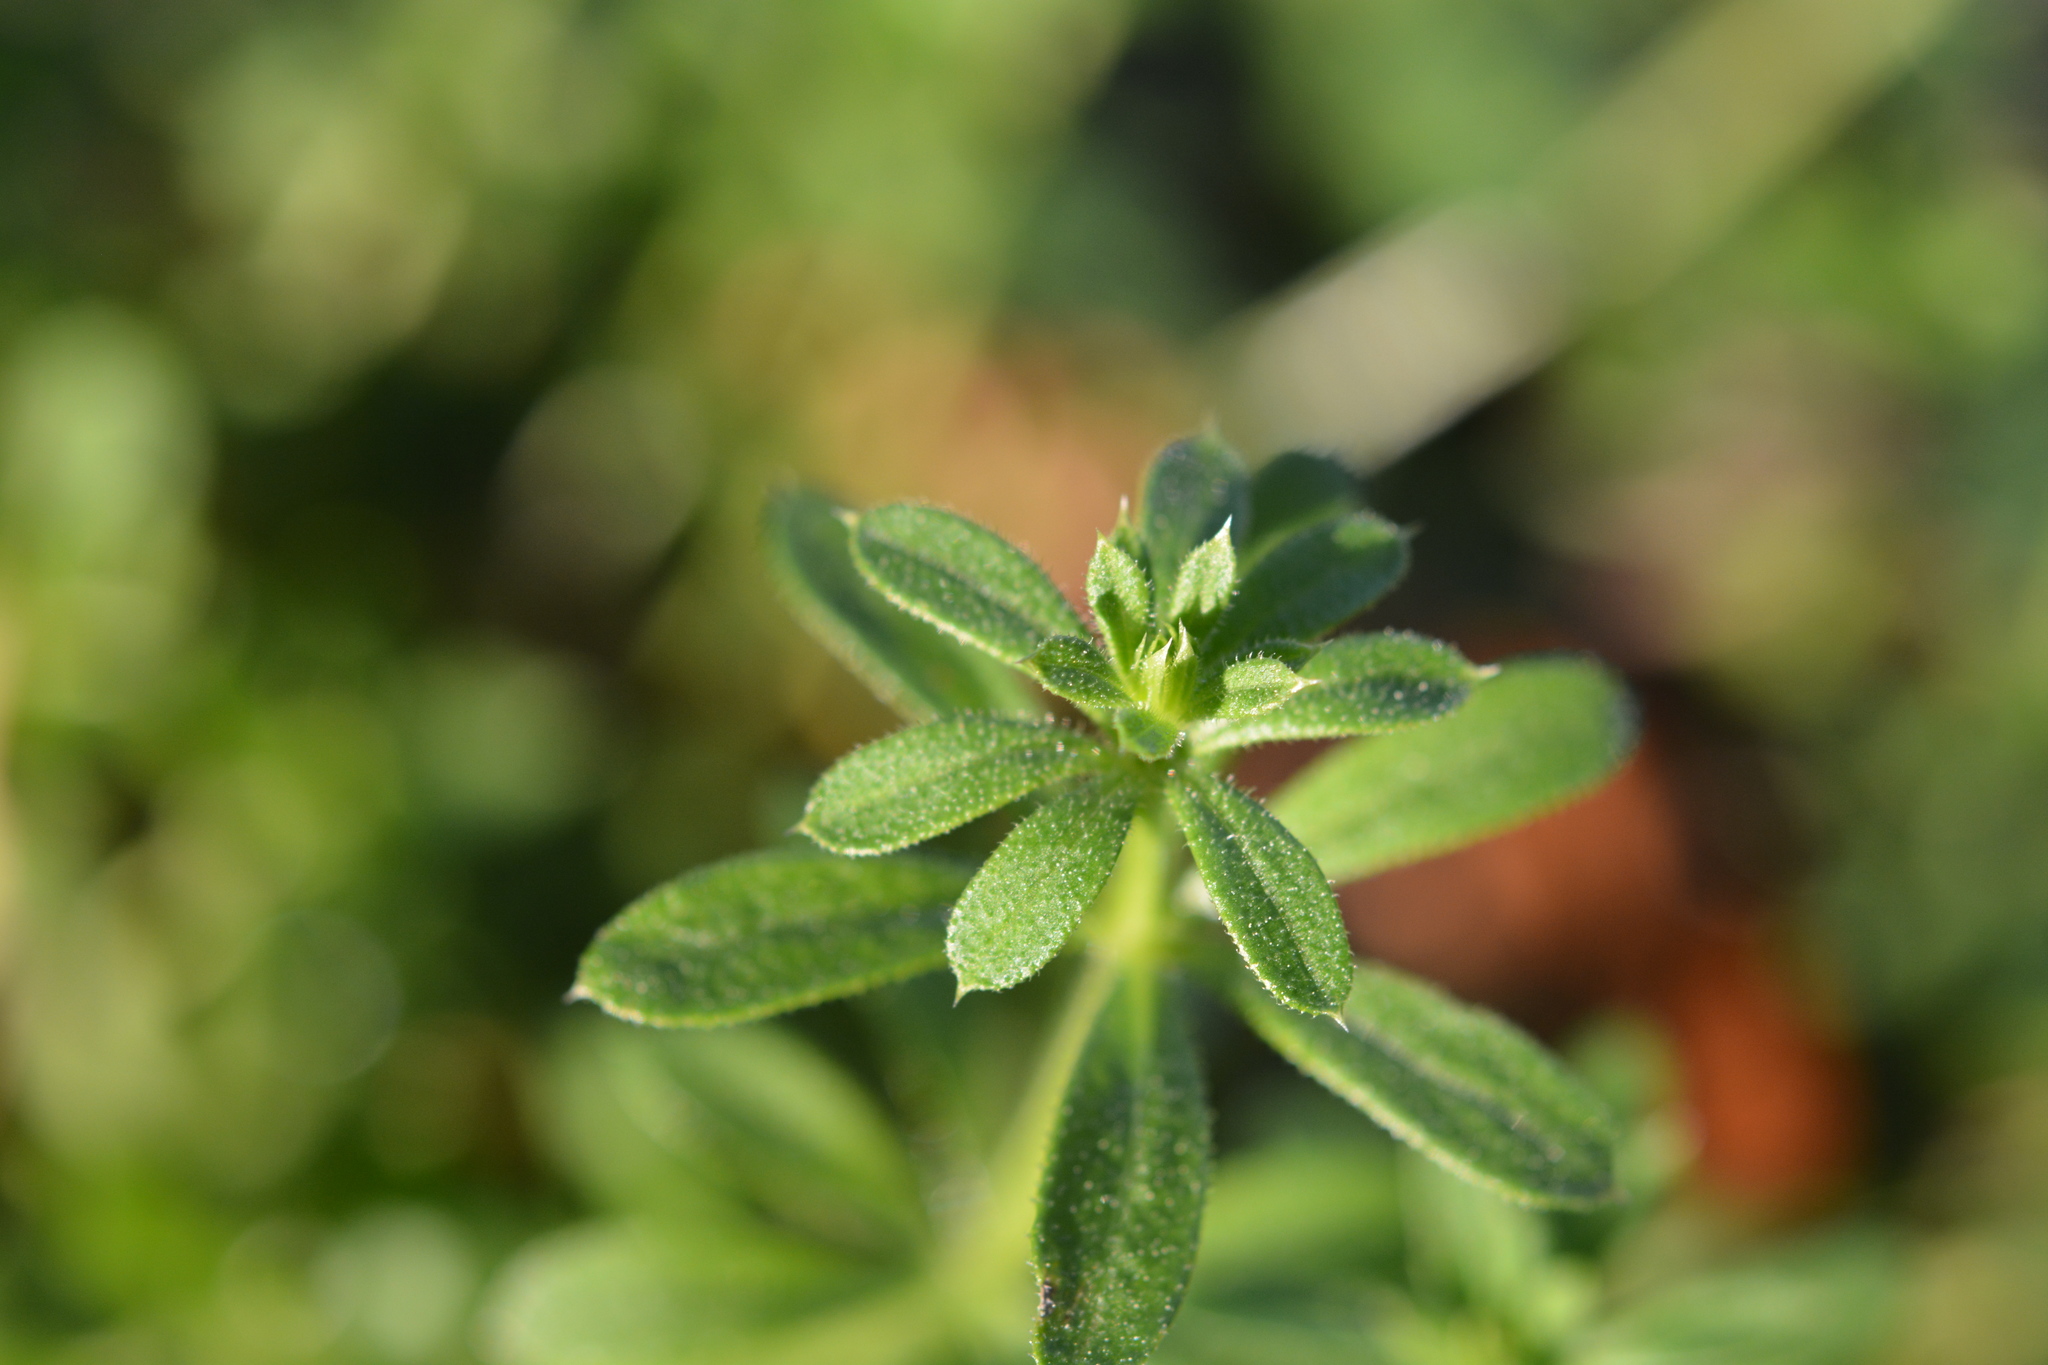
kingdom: Plantae
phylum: Tracheophyta
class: Magnoliopsida
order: Gentianales
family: Rubiaceae
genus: Galium
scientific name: Galium aparine
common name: Cleavers
